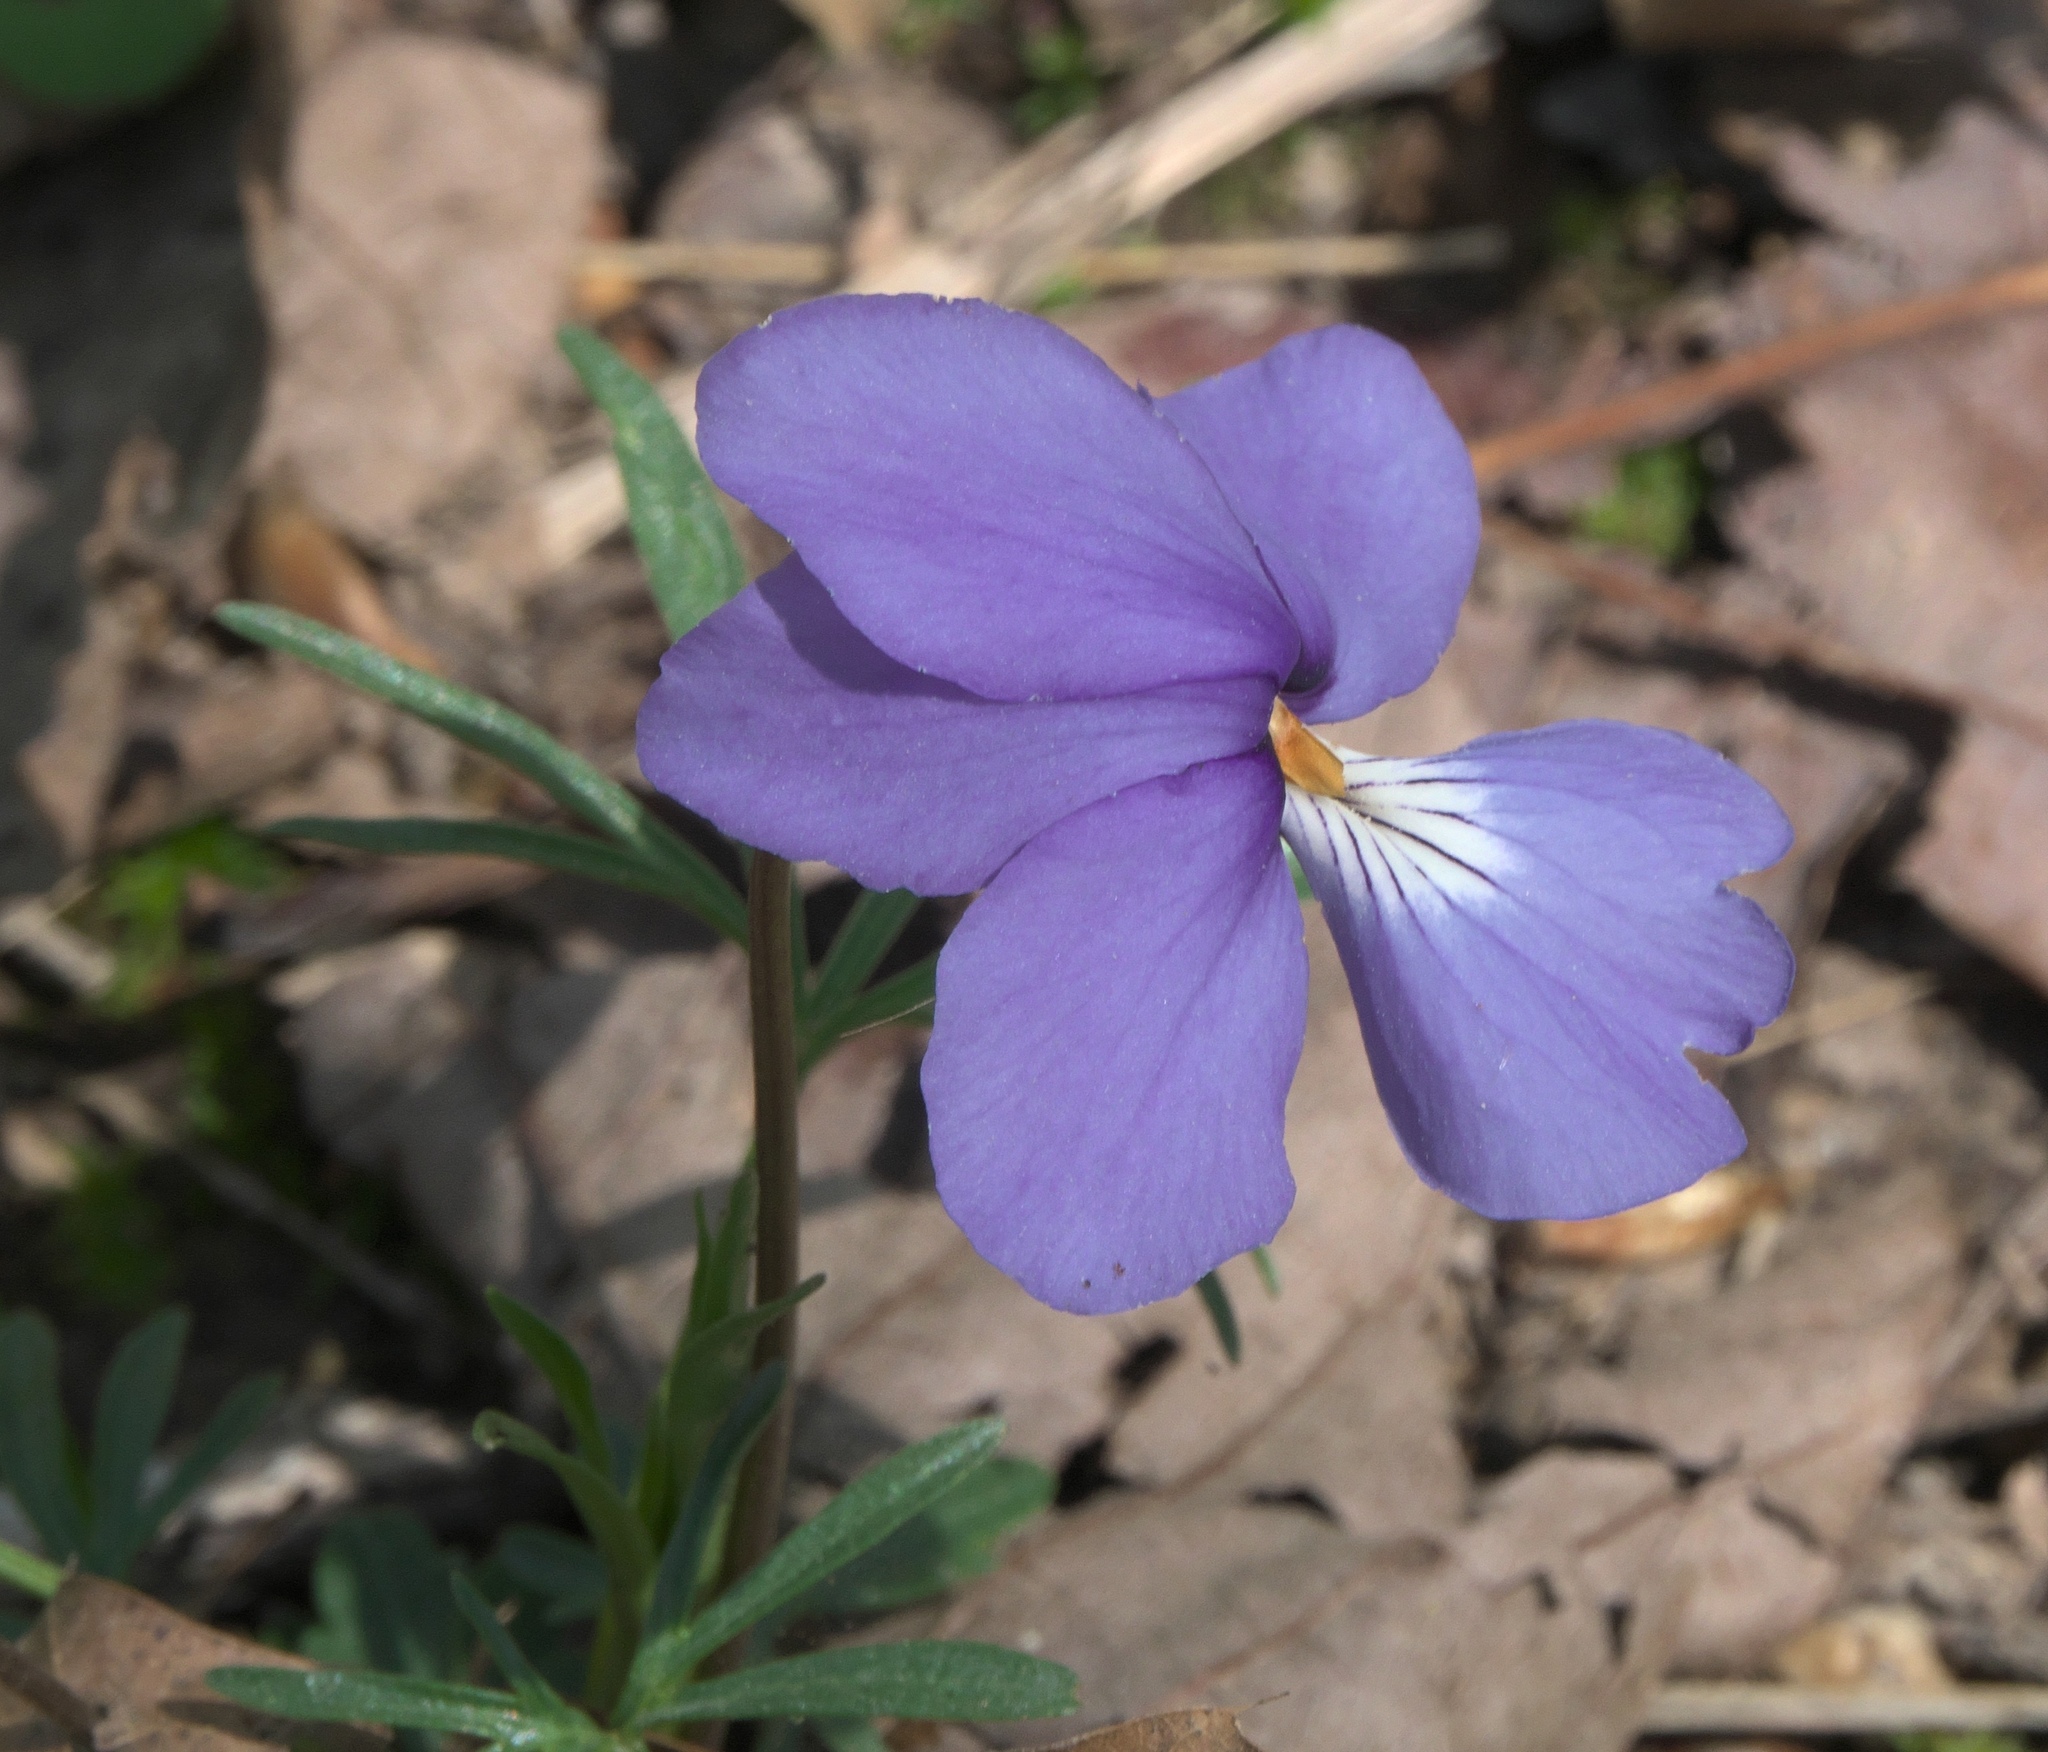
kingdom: Plantae
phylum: Tracheophyta
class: Magnoliopsida
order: Malpighiales
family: Violaceae
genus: Viola
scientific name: Viola pedata
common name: Pansy violet
